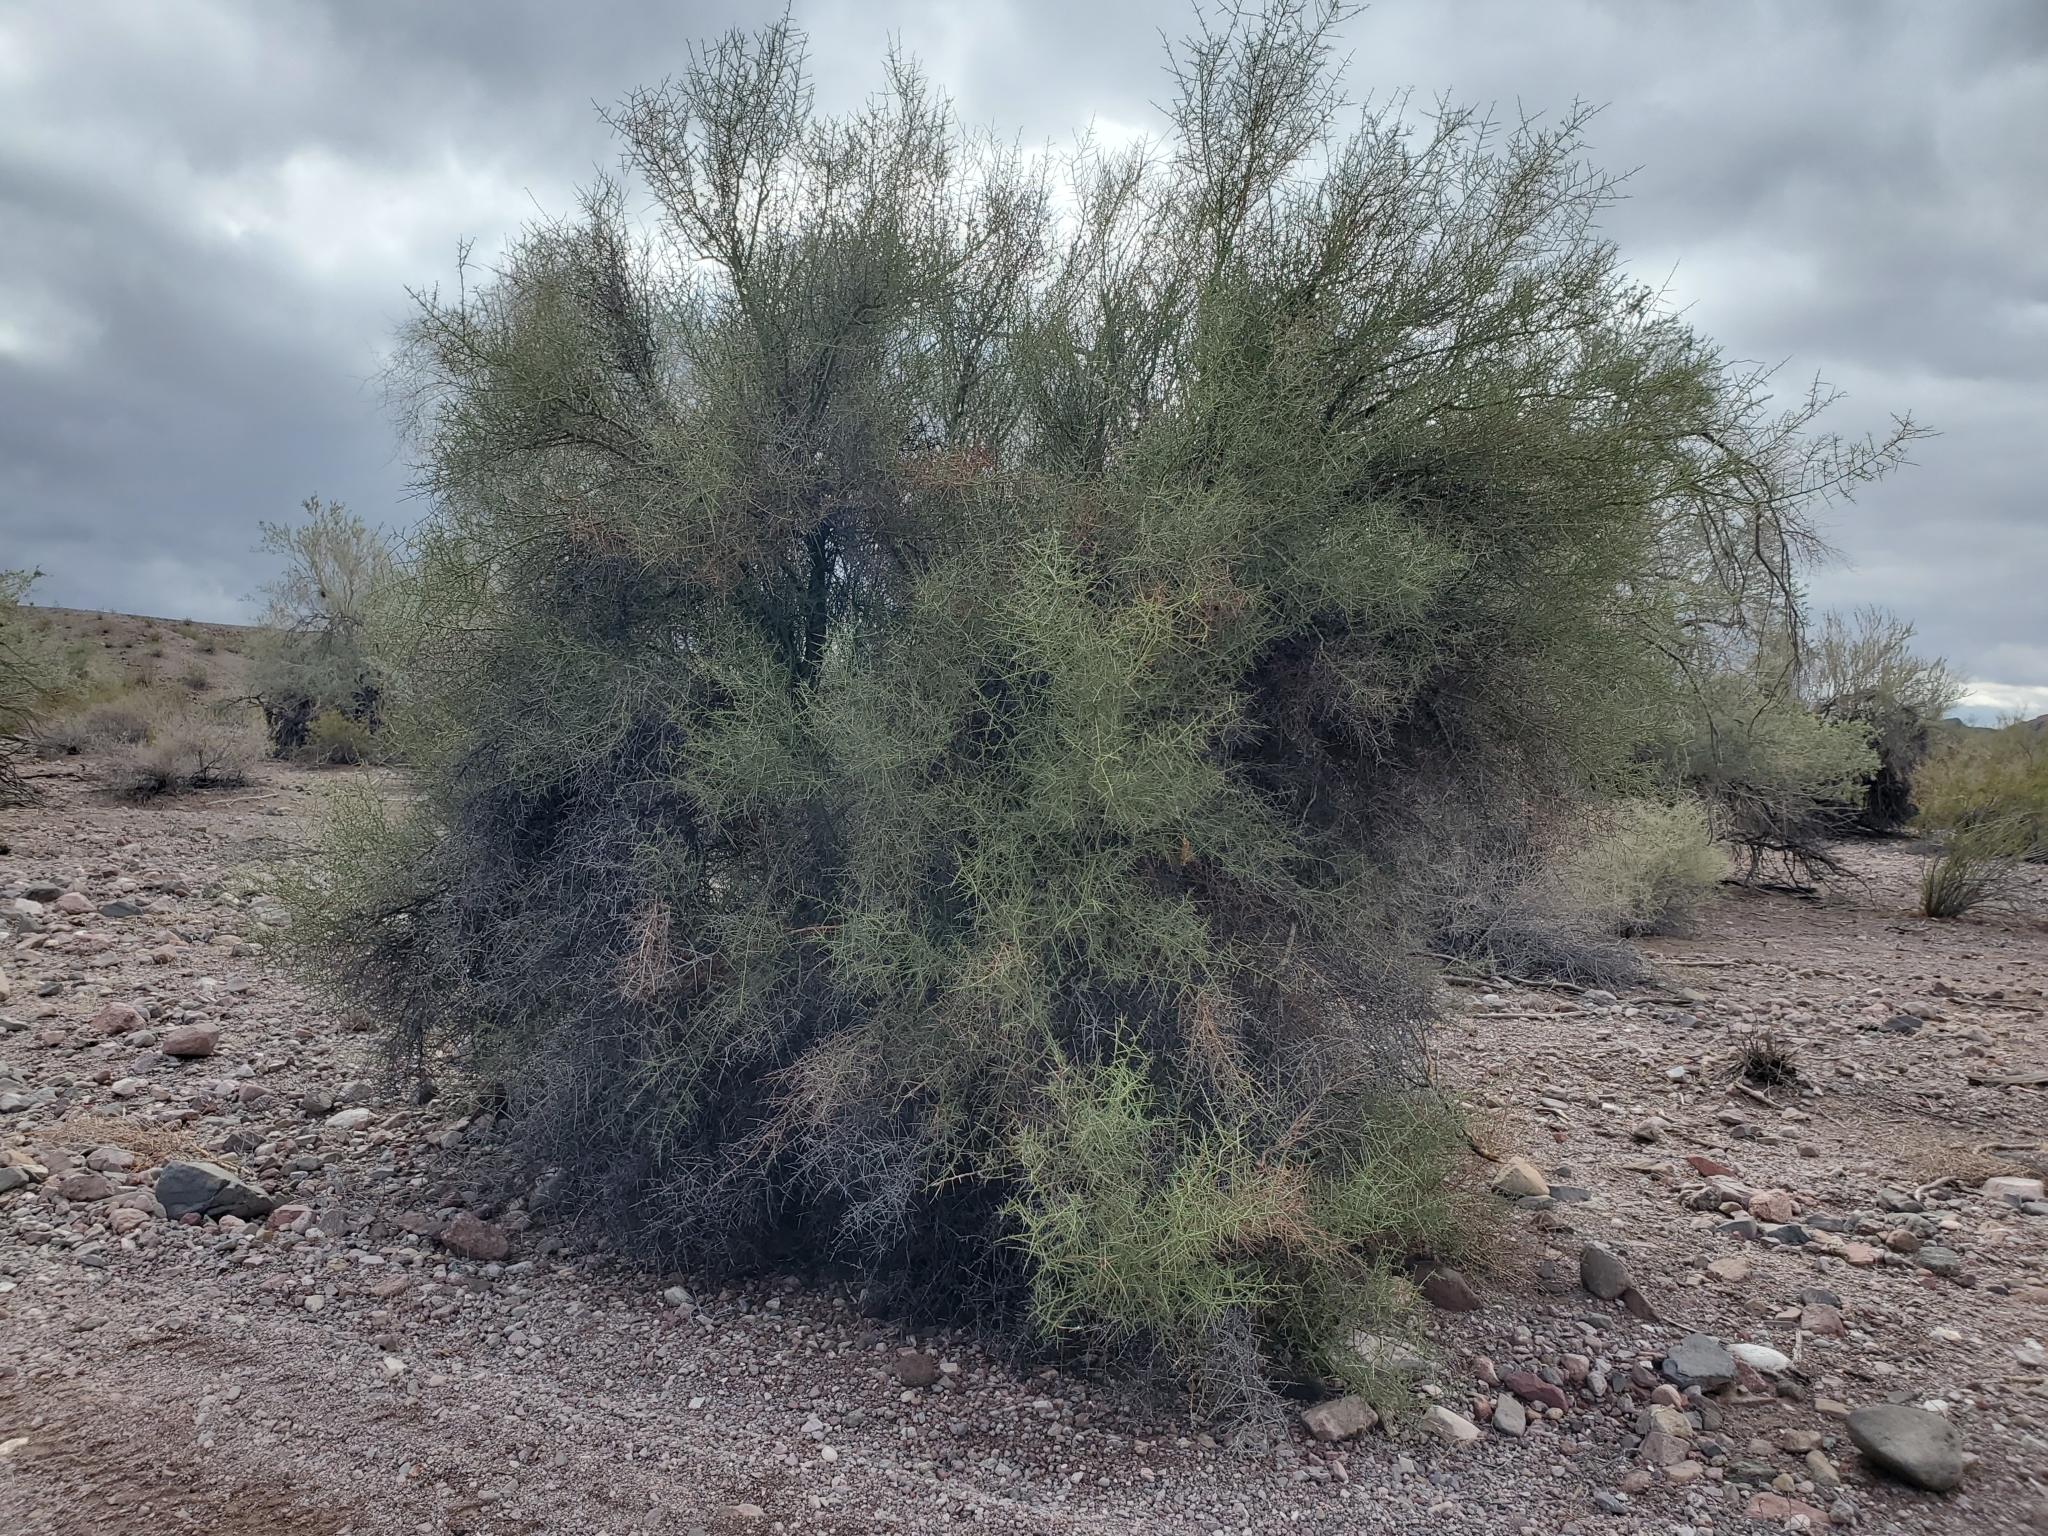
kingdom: Plantae
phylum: Tracheophyta
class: Magnoliopsida
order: Fabales
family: Fabaceae
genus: Parkinsonia
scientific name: Parkinsonia microphylla
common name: Yellow paloverde
